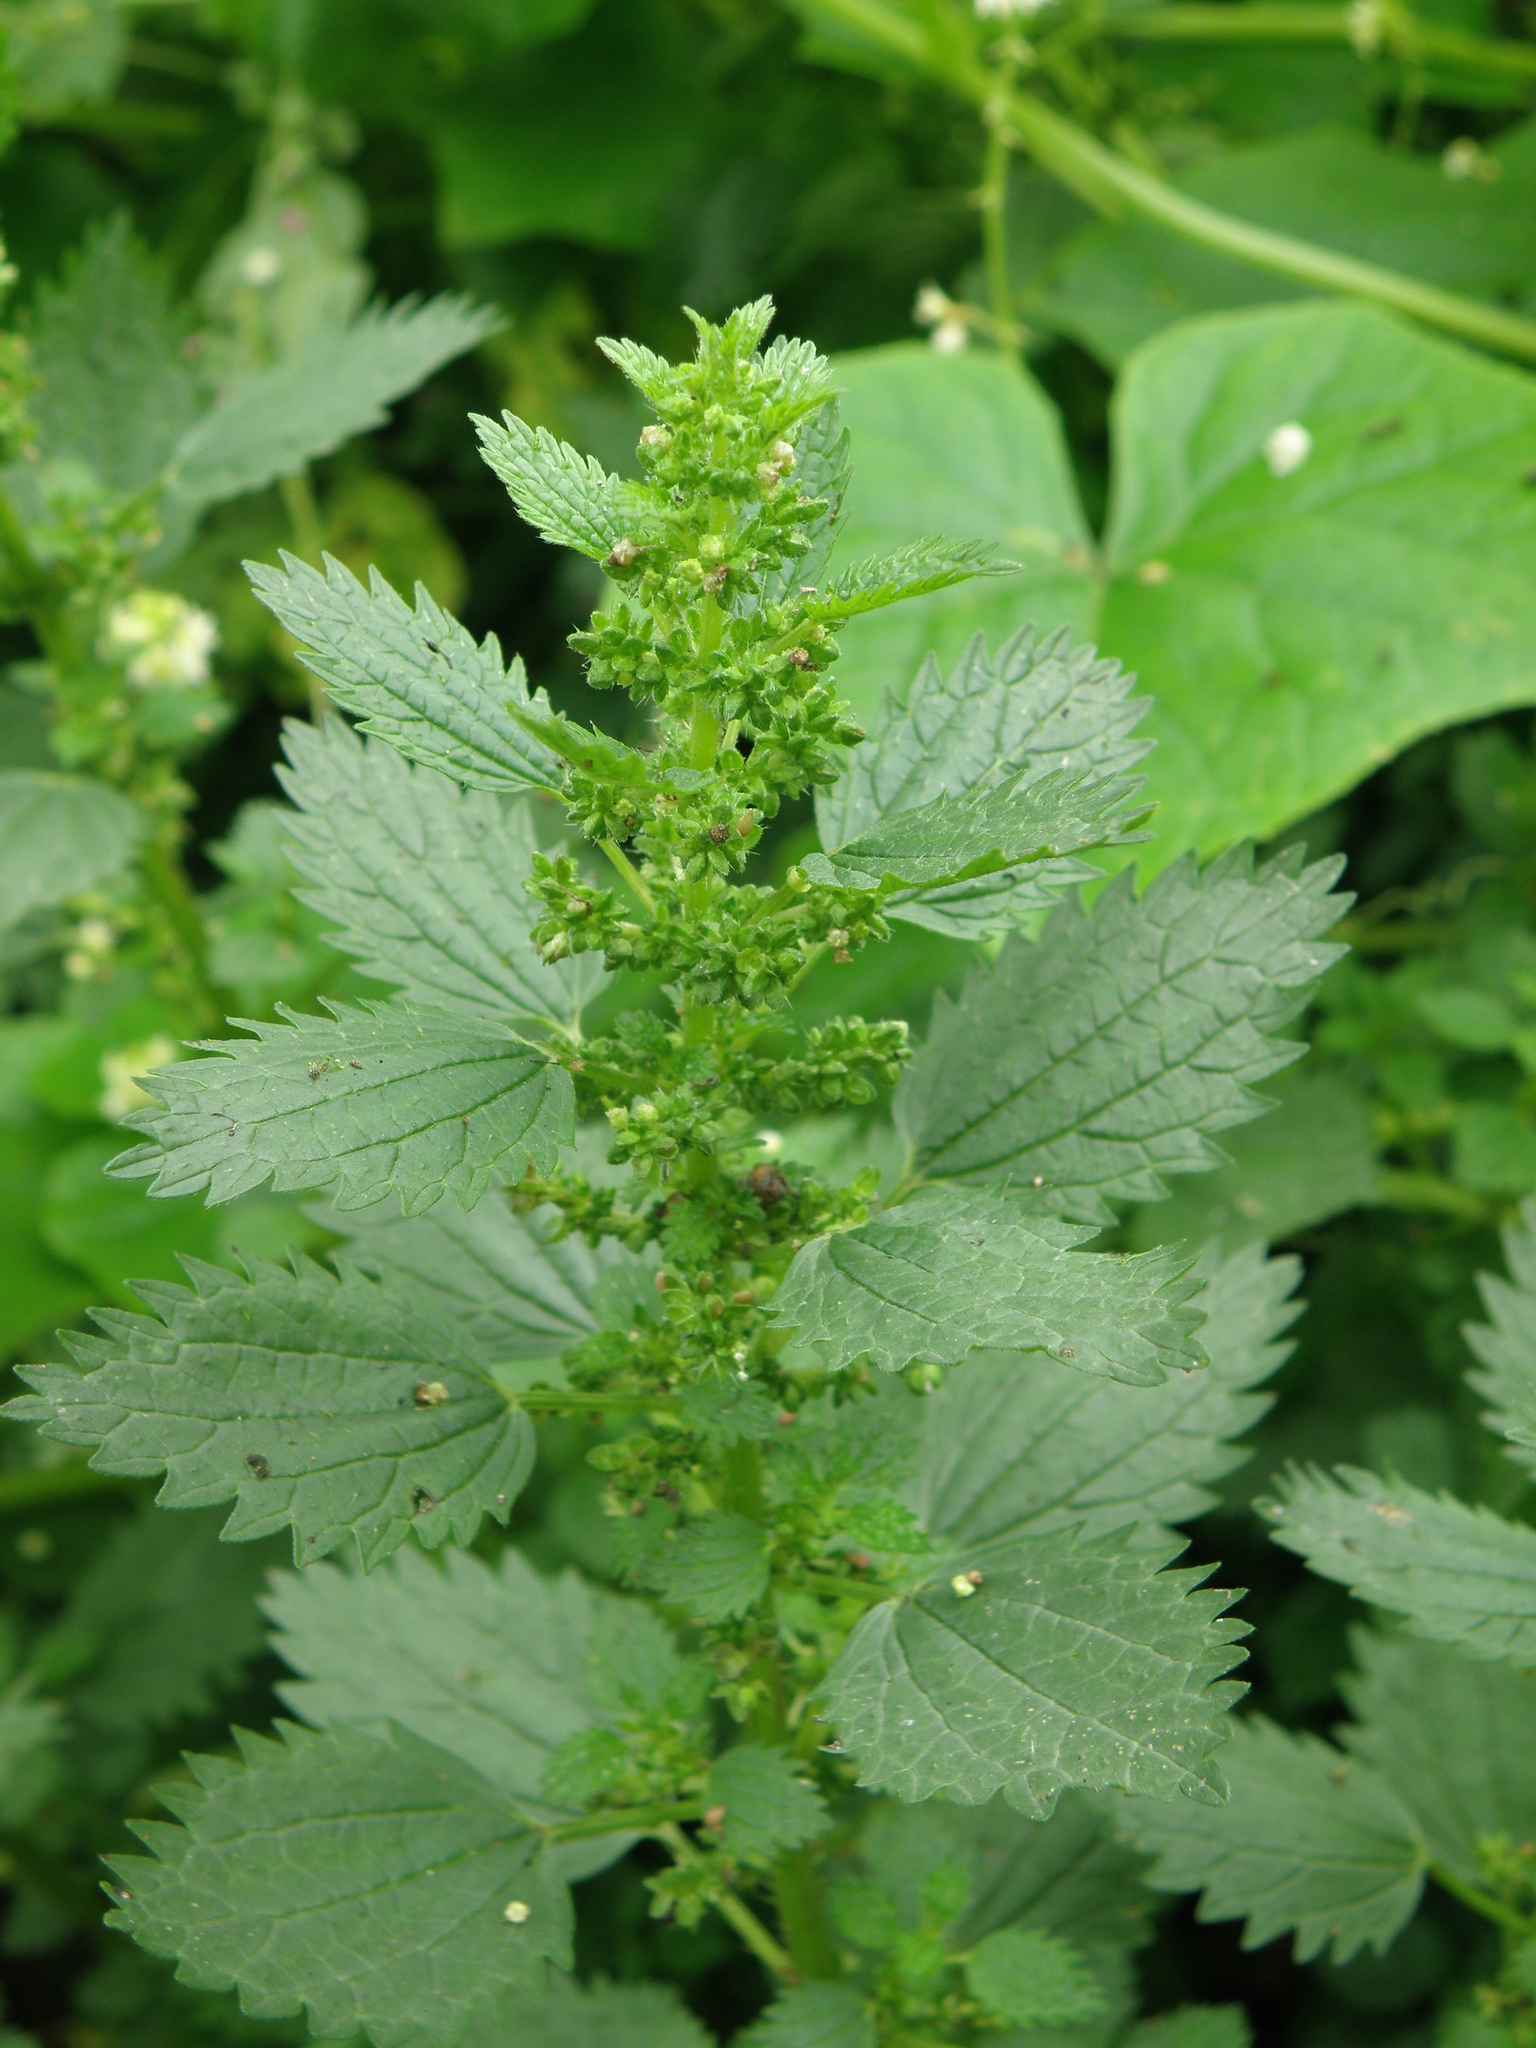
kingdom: Plantae
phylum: Tracheophyta
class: Magnoliopsida
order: Rosales
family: Urticaceae
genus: Urtica
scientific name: Urtica urens
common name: Dwarf nettle
